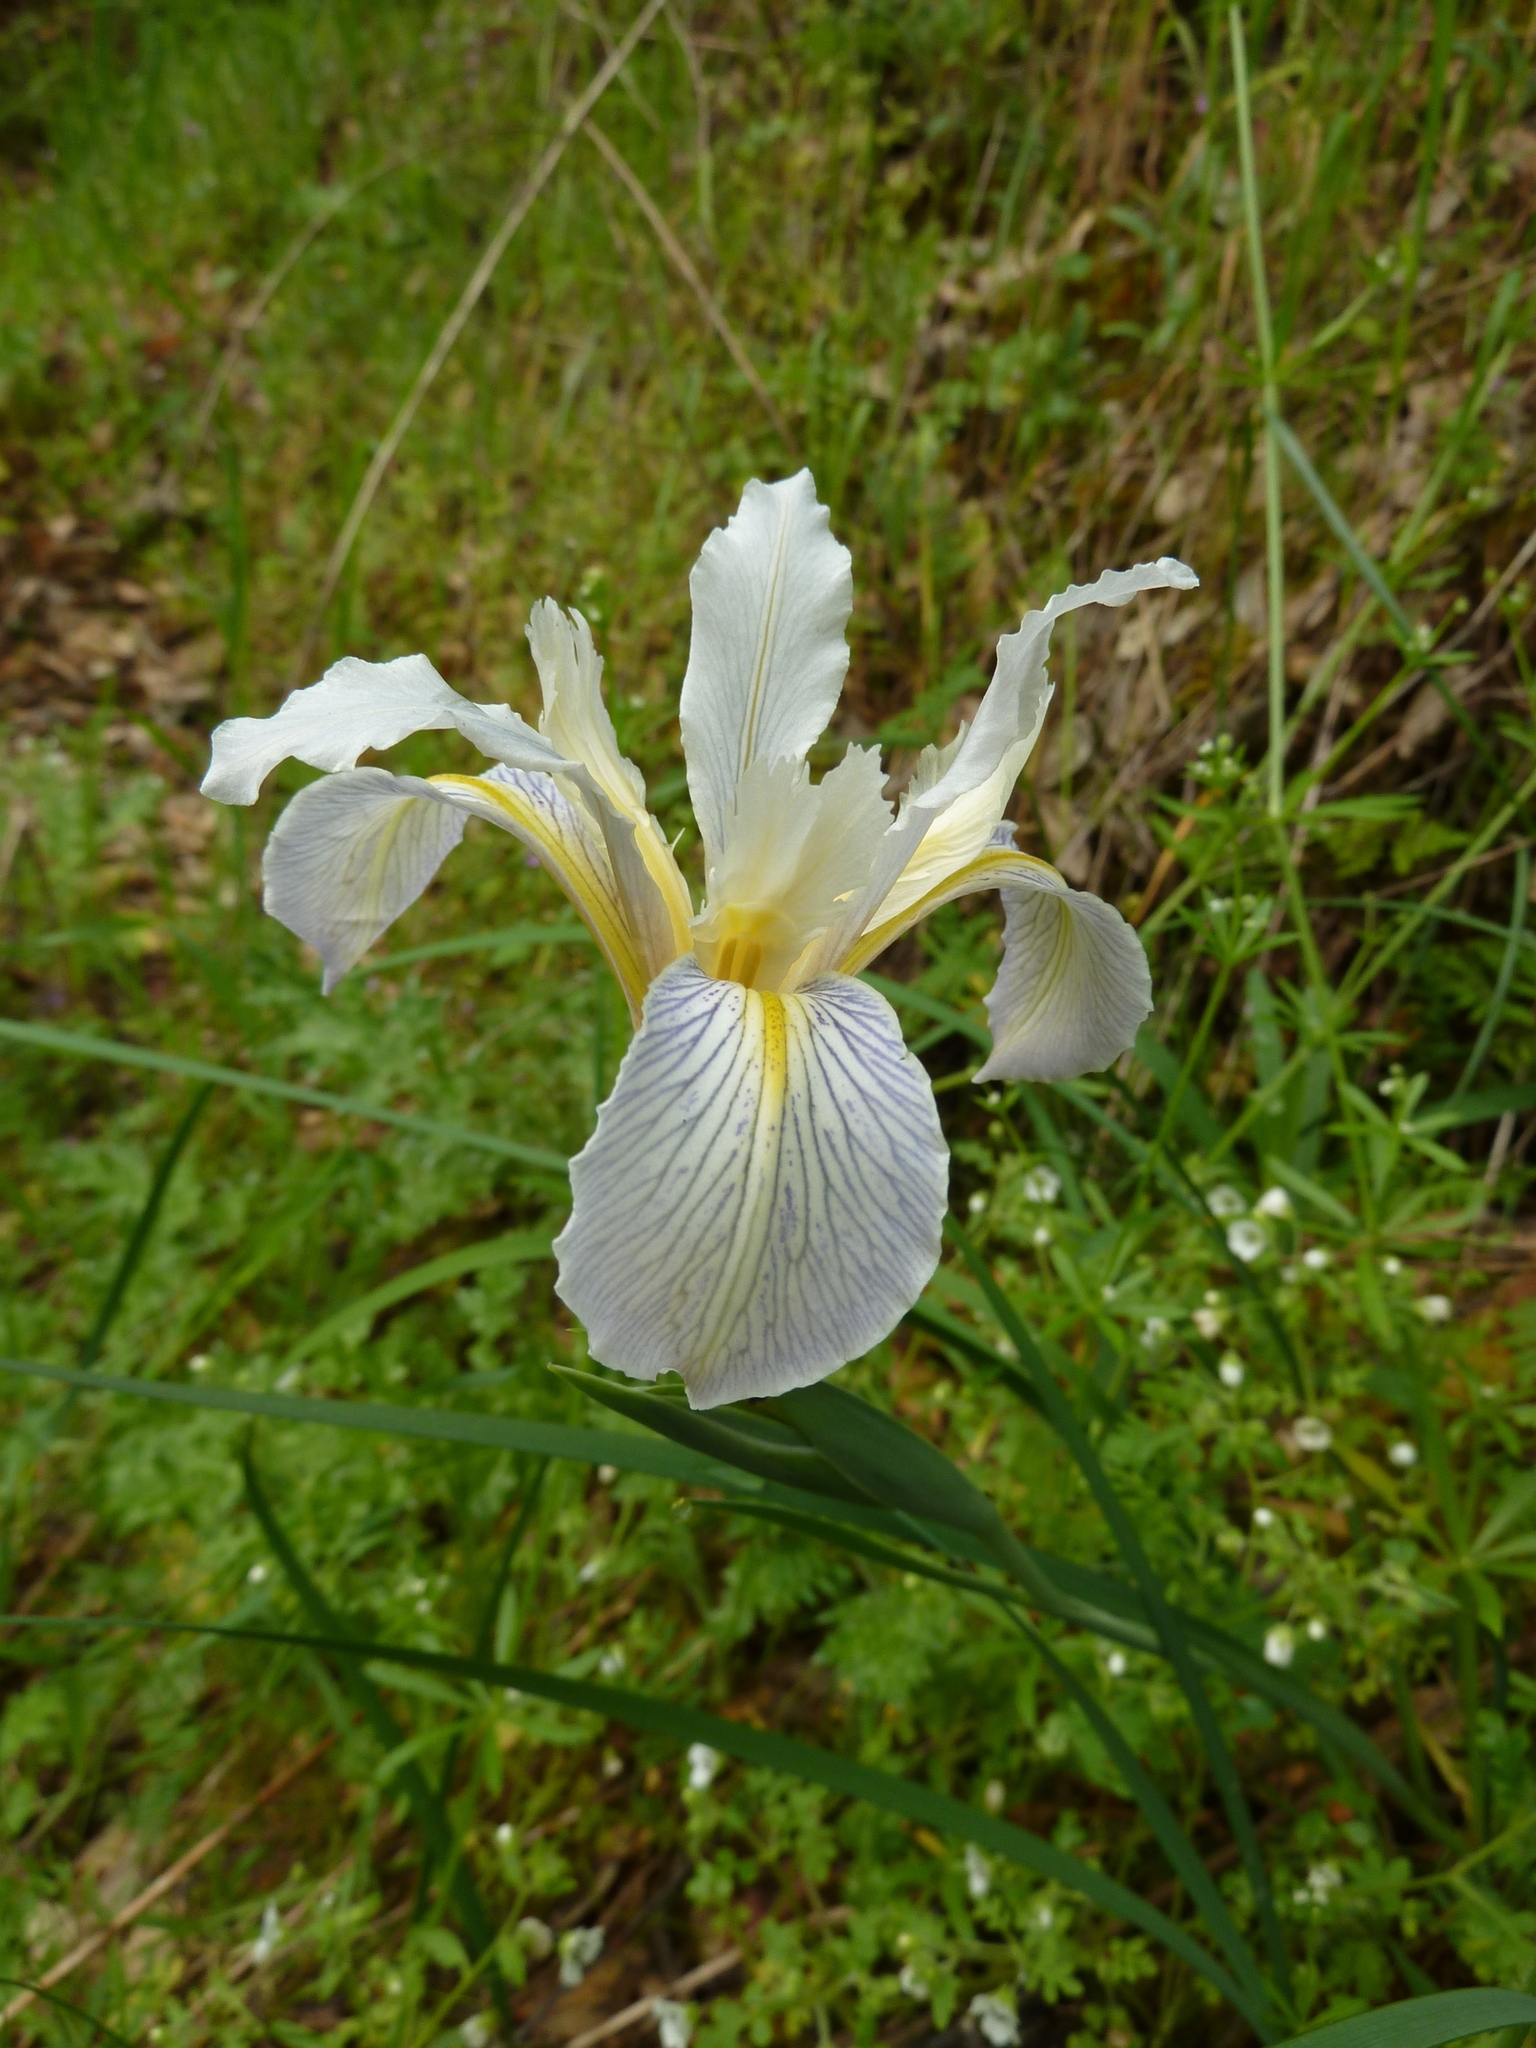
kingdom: Plantae
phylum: Tracheophyta
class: Liliopsida
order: Asparagales
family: Iridaceae
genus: Iris
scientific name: Iris macrosiphon
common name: Ground iris
